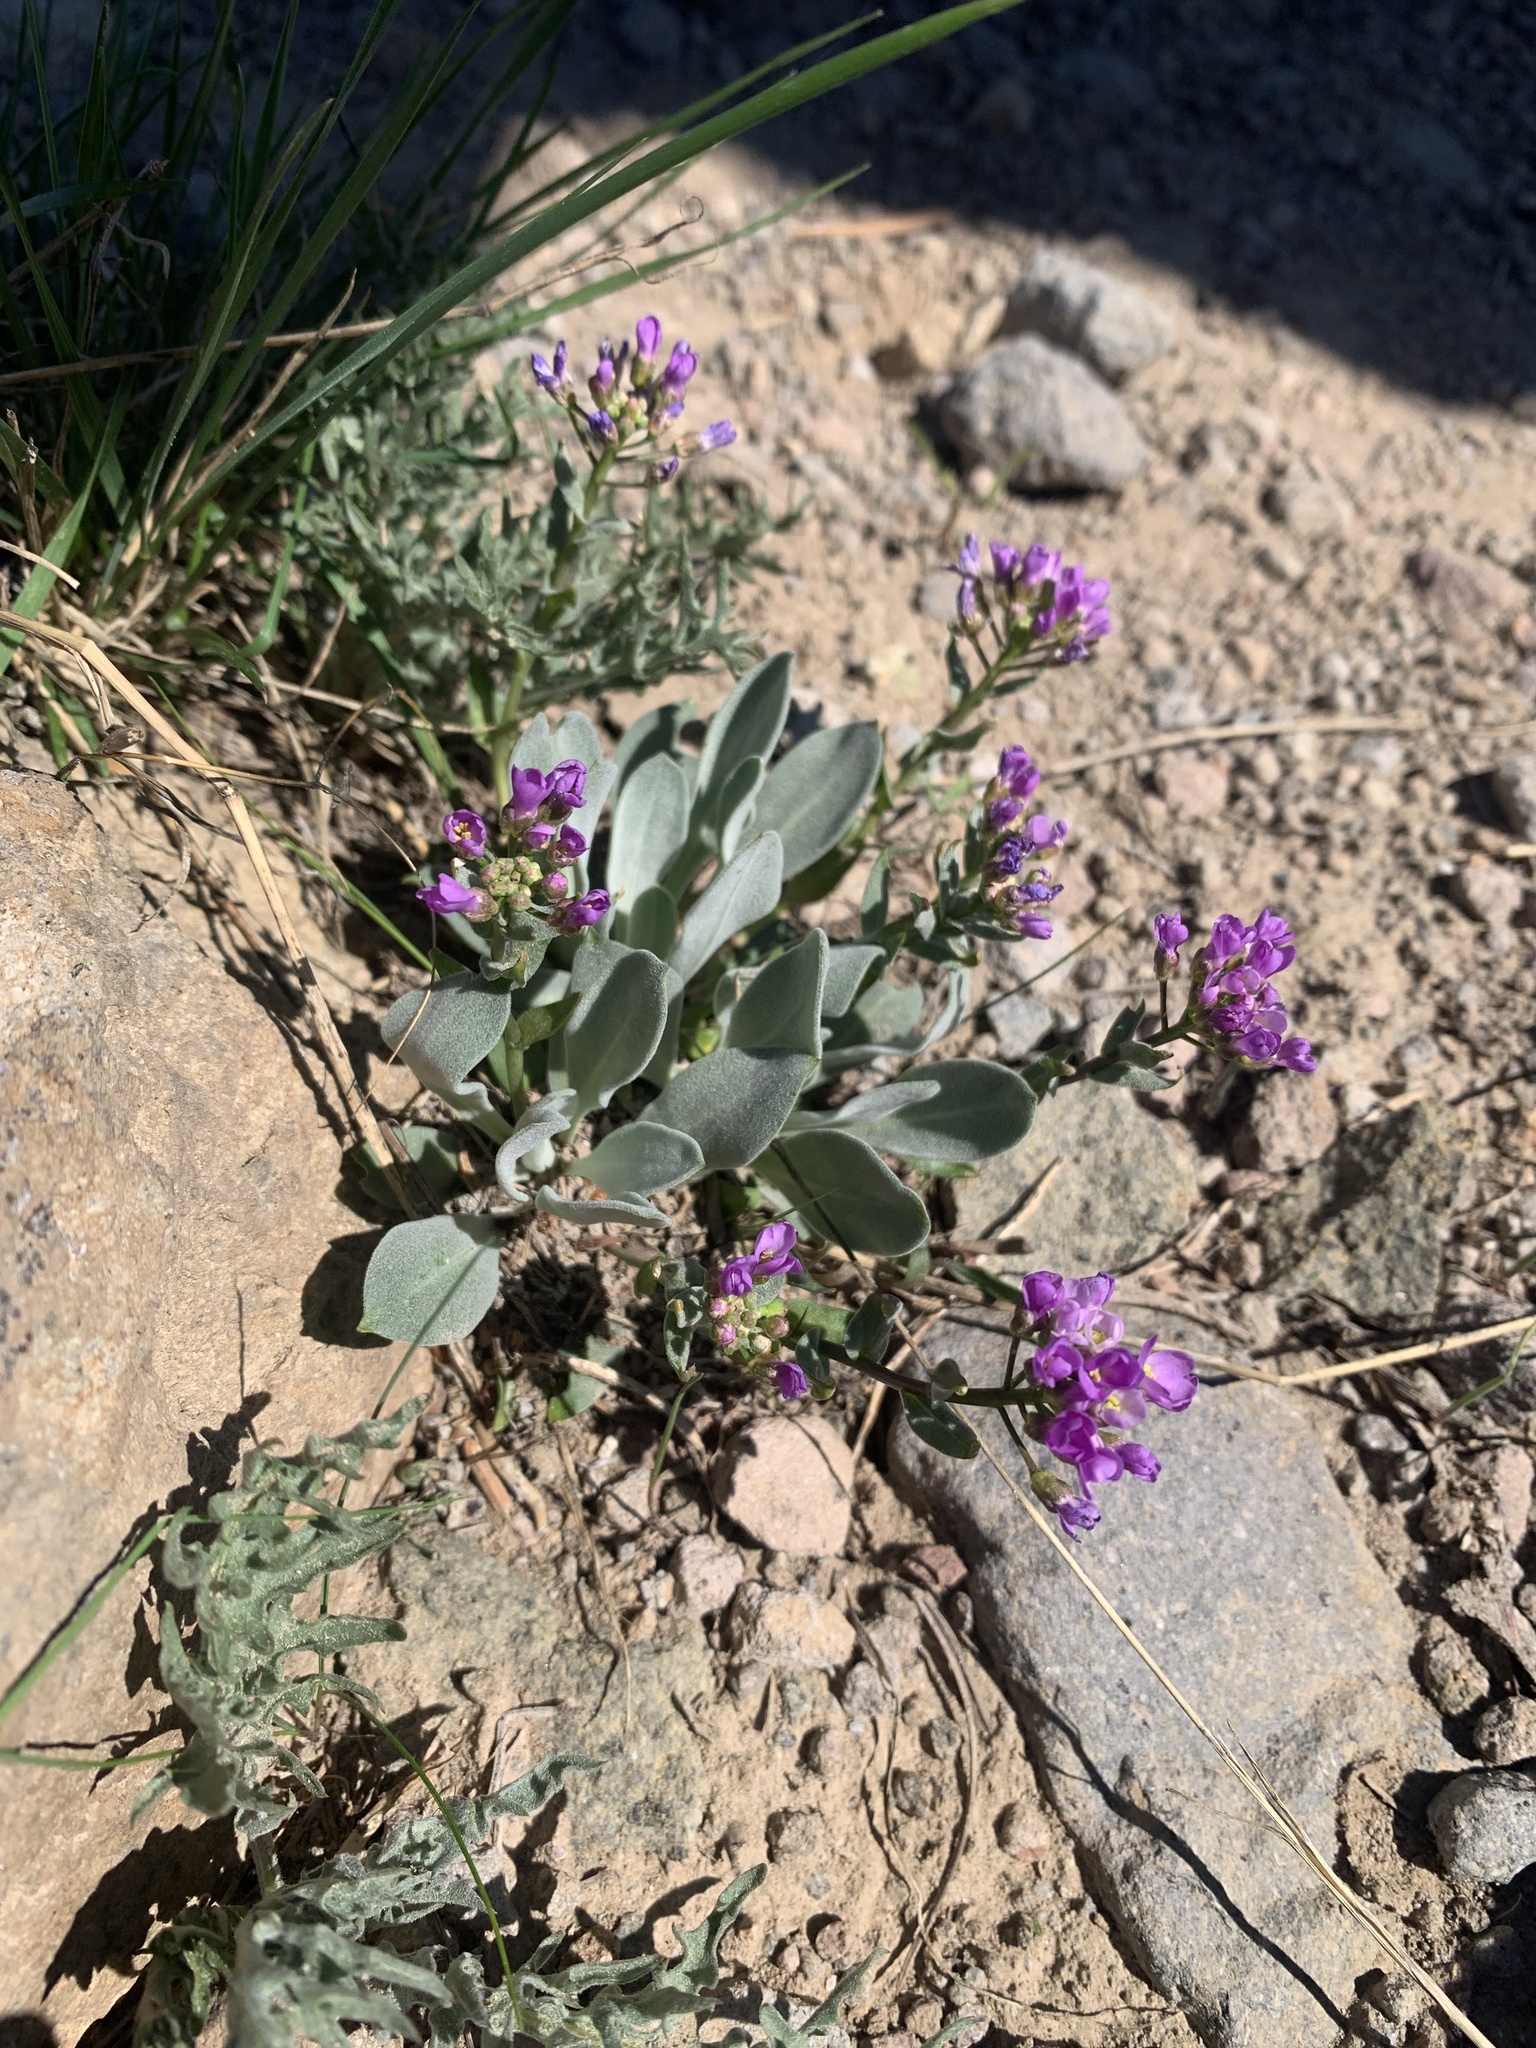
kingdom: Plantae
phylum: Tracheophyta
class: Magnoliopsida
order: Brassicales
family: Brassicaceae
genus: Phoenicaulis
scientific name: Phoenicaulis cheiranthoides
